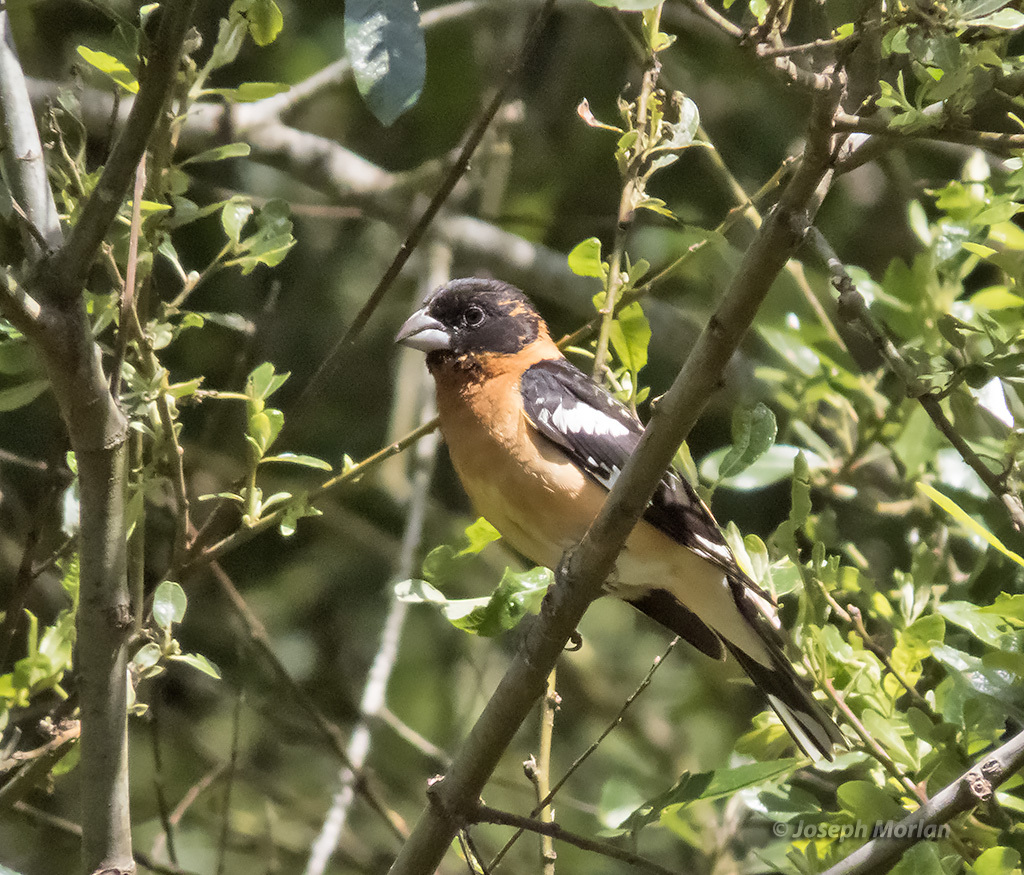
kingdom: Animalia
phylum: Chordata
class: Aves
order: Passeriformes
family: Cardinalidae
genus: Pheucticus
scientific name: Pheucticus melanocephalus
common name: Black-headed grosbeak
